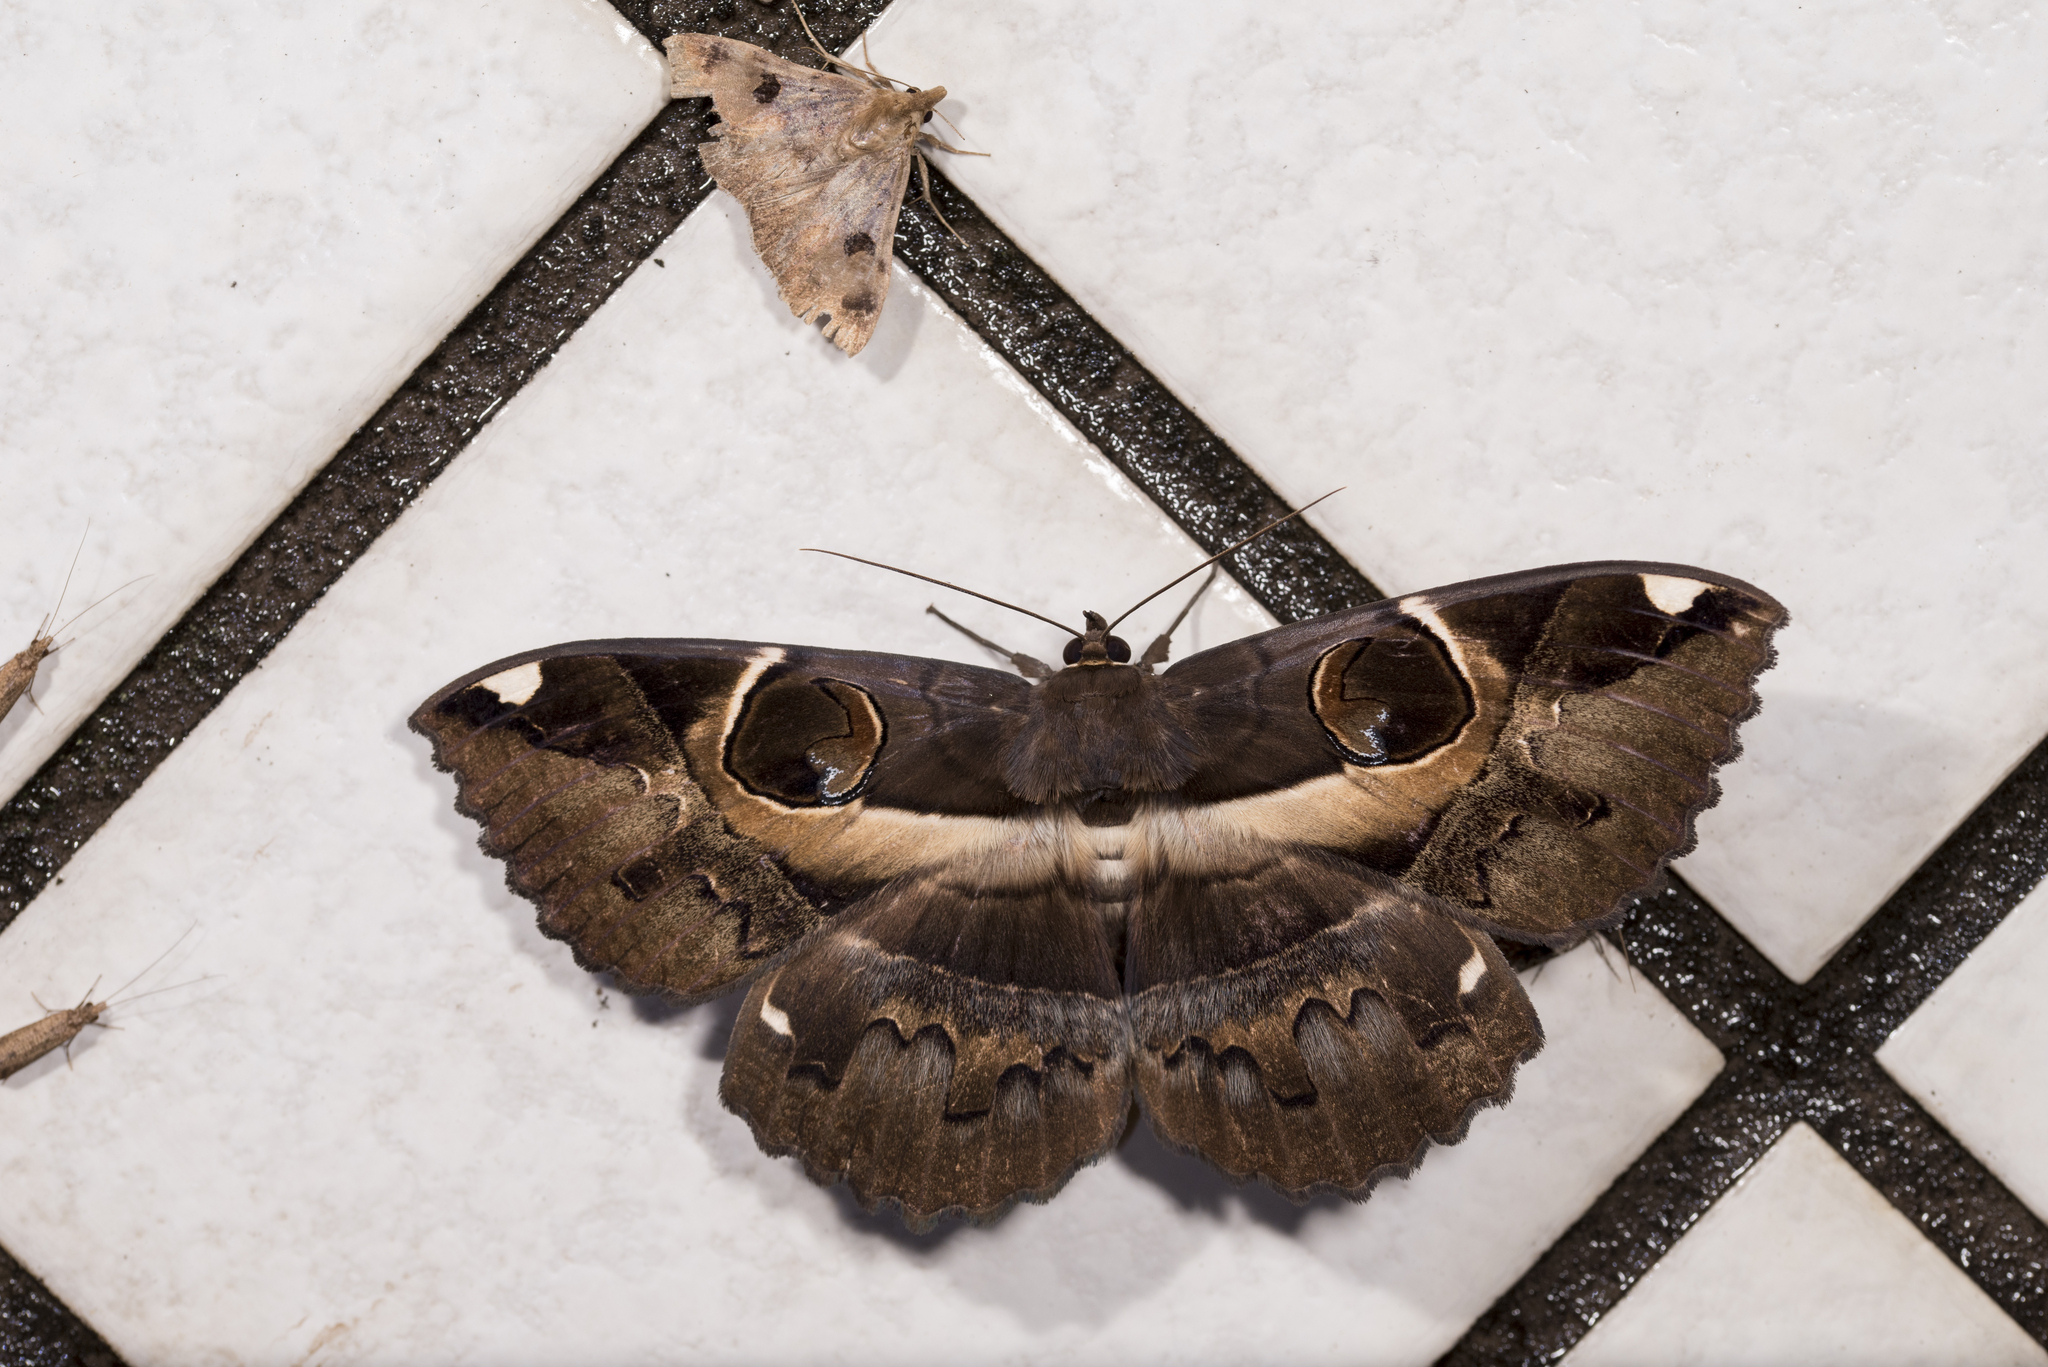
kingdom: Animalia
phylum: Arthropoda
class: Insecta
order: Lepidoptera
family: Erebidae
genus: Erebus
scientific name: Erebus ephesperis
